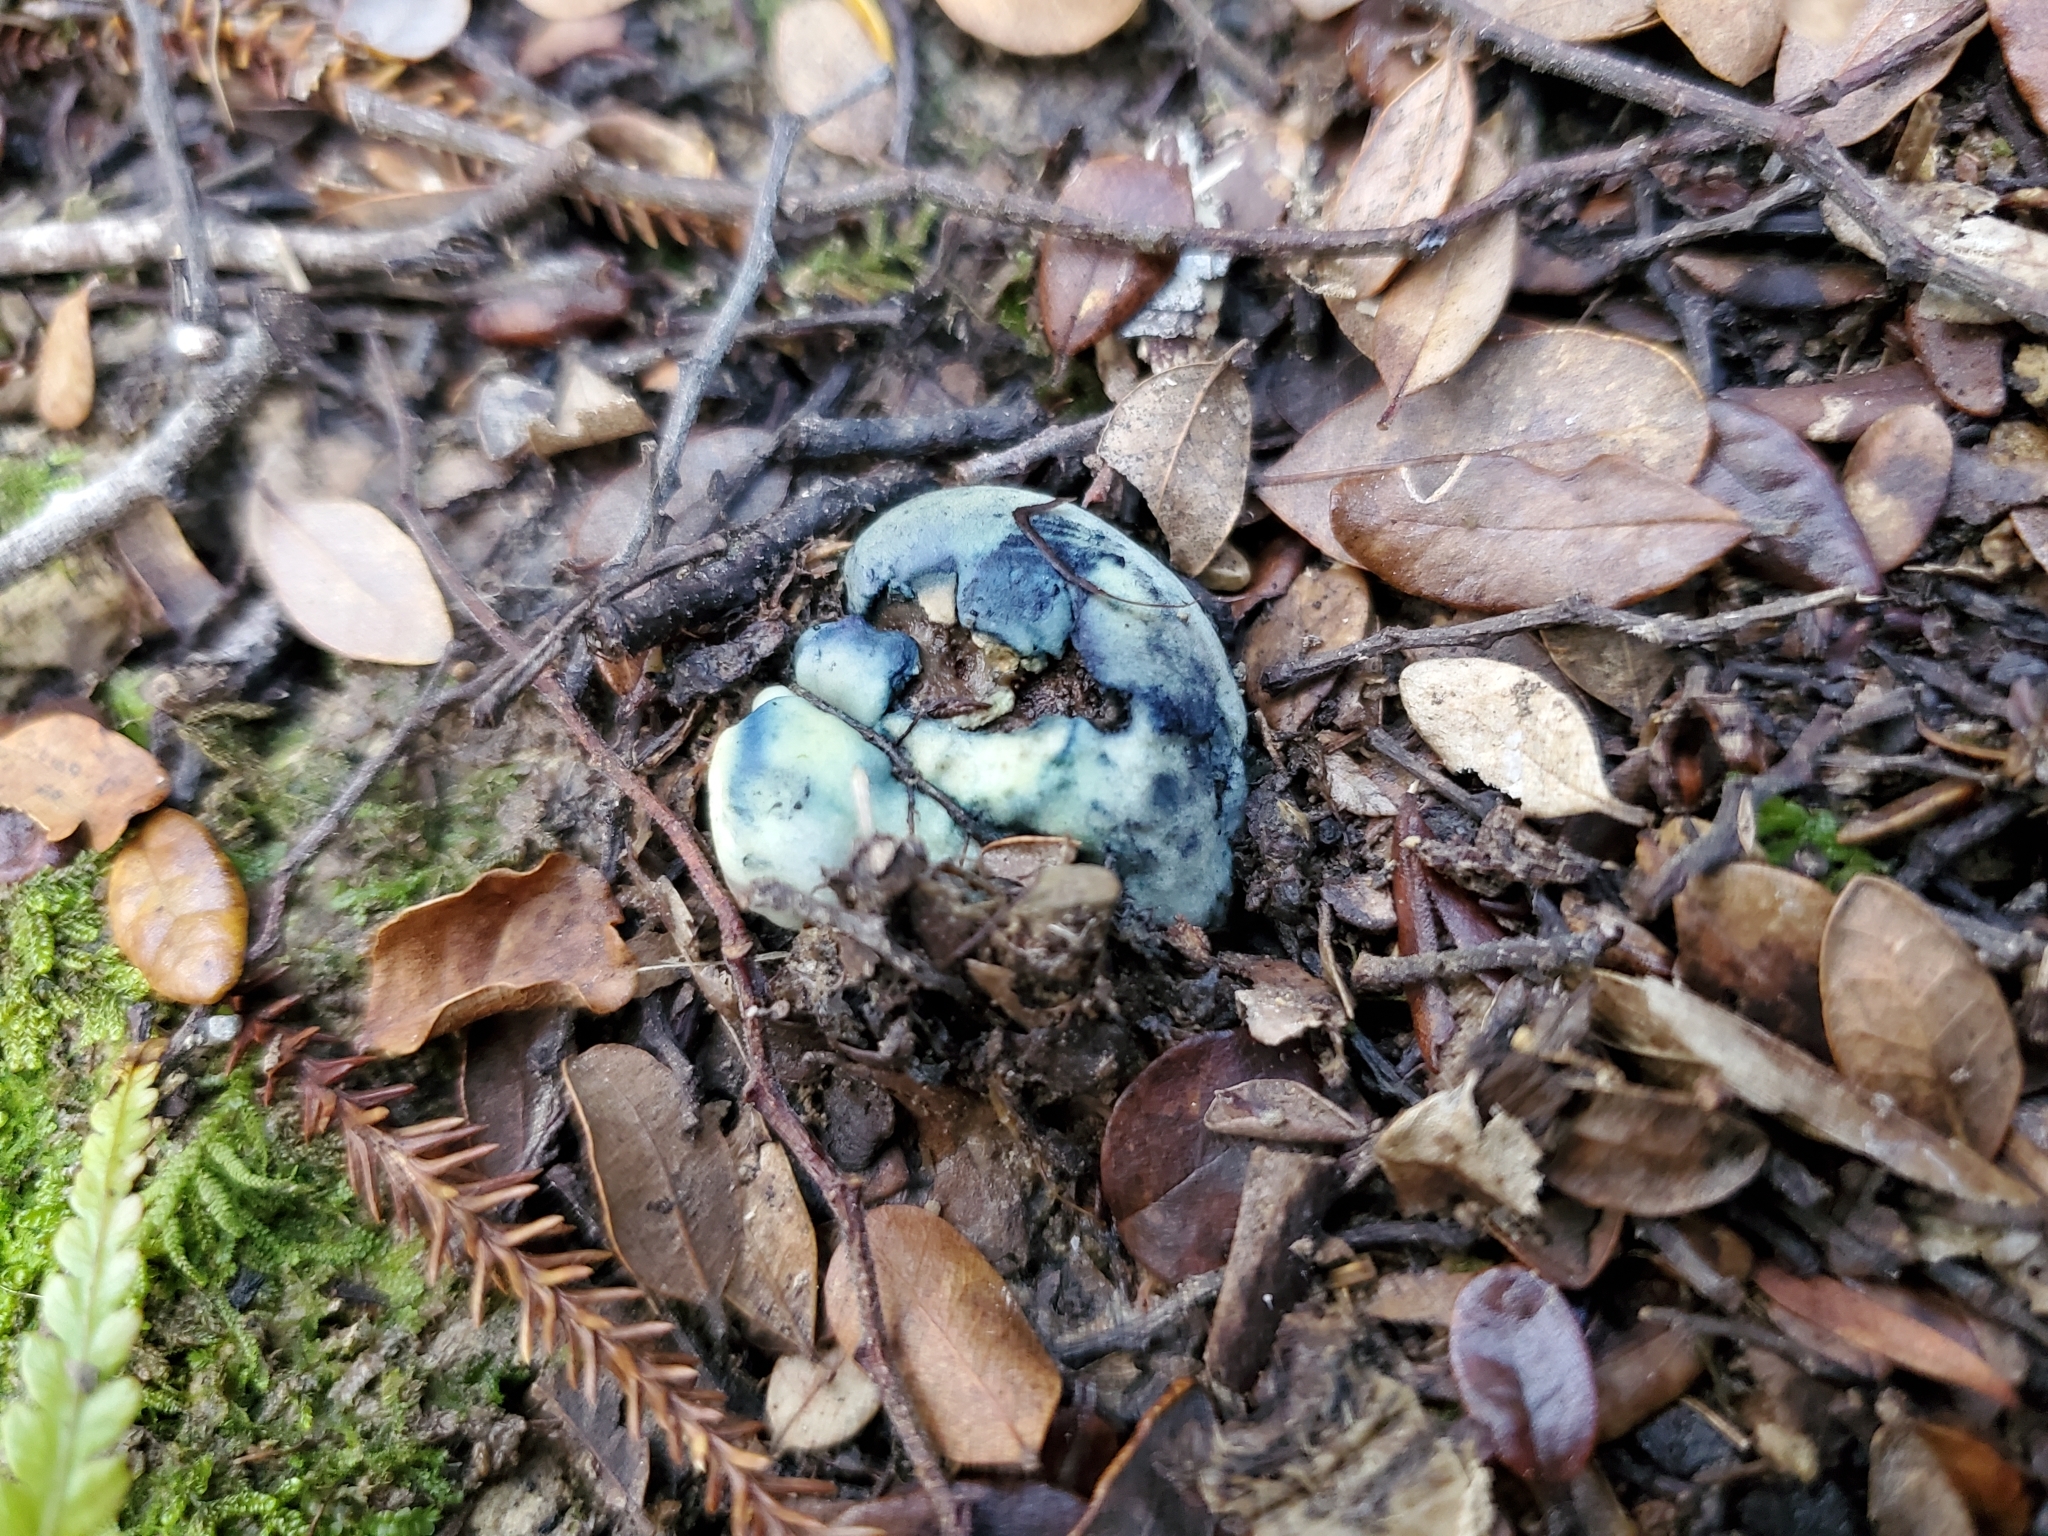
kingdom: Fungi
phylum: Basidiomycota
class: Agaricomycetes
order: Boletales
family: Boletaceae
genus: Leccinum
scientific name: Leccinum pachyderme
